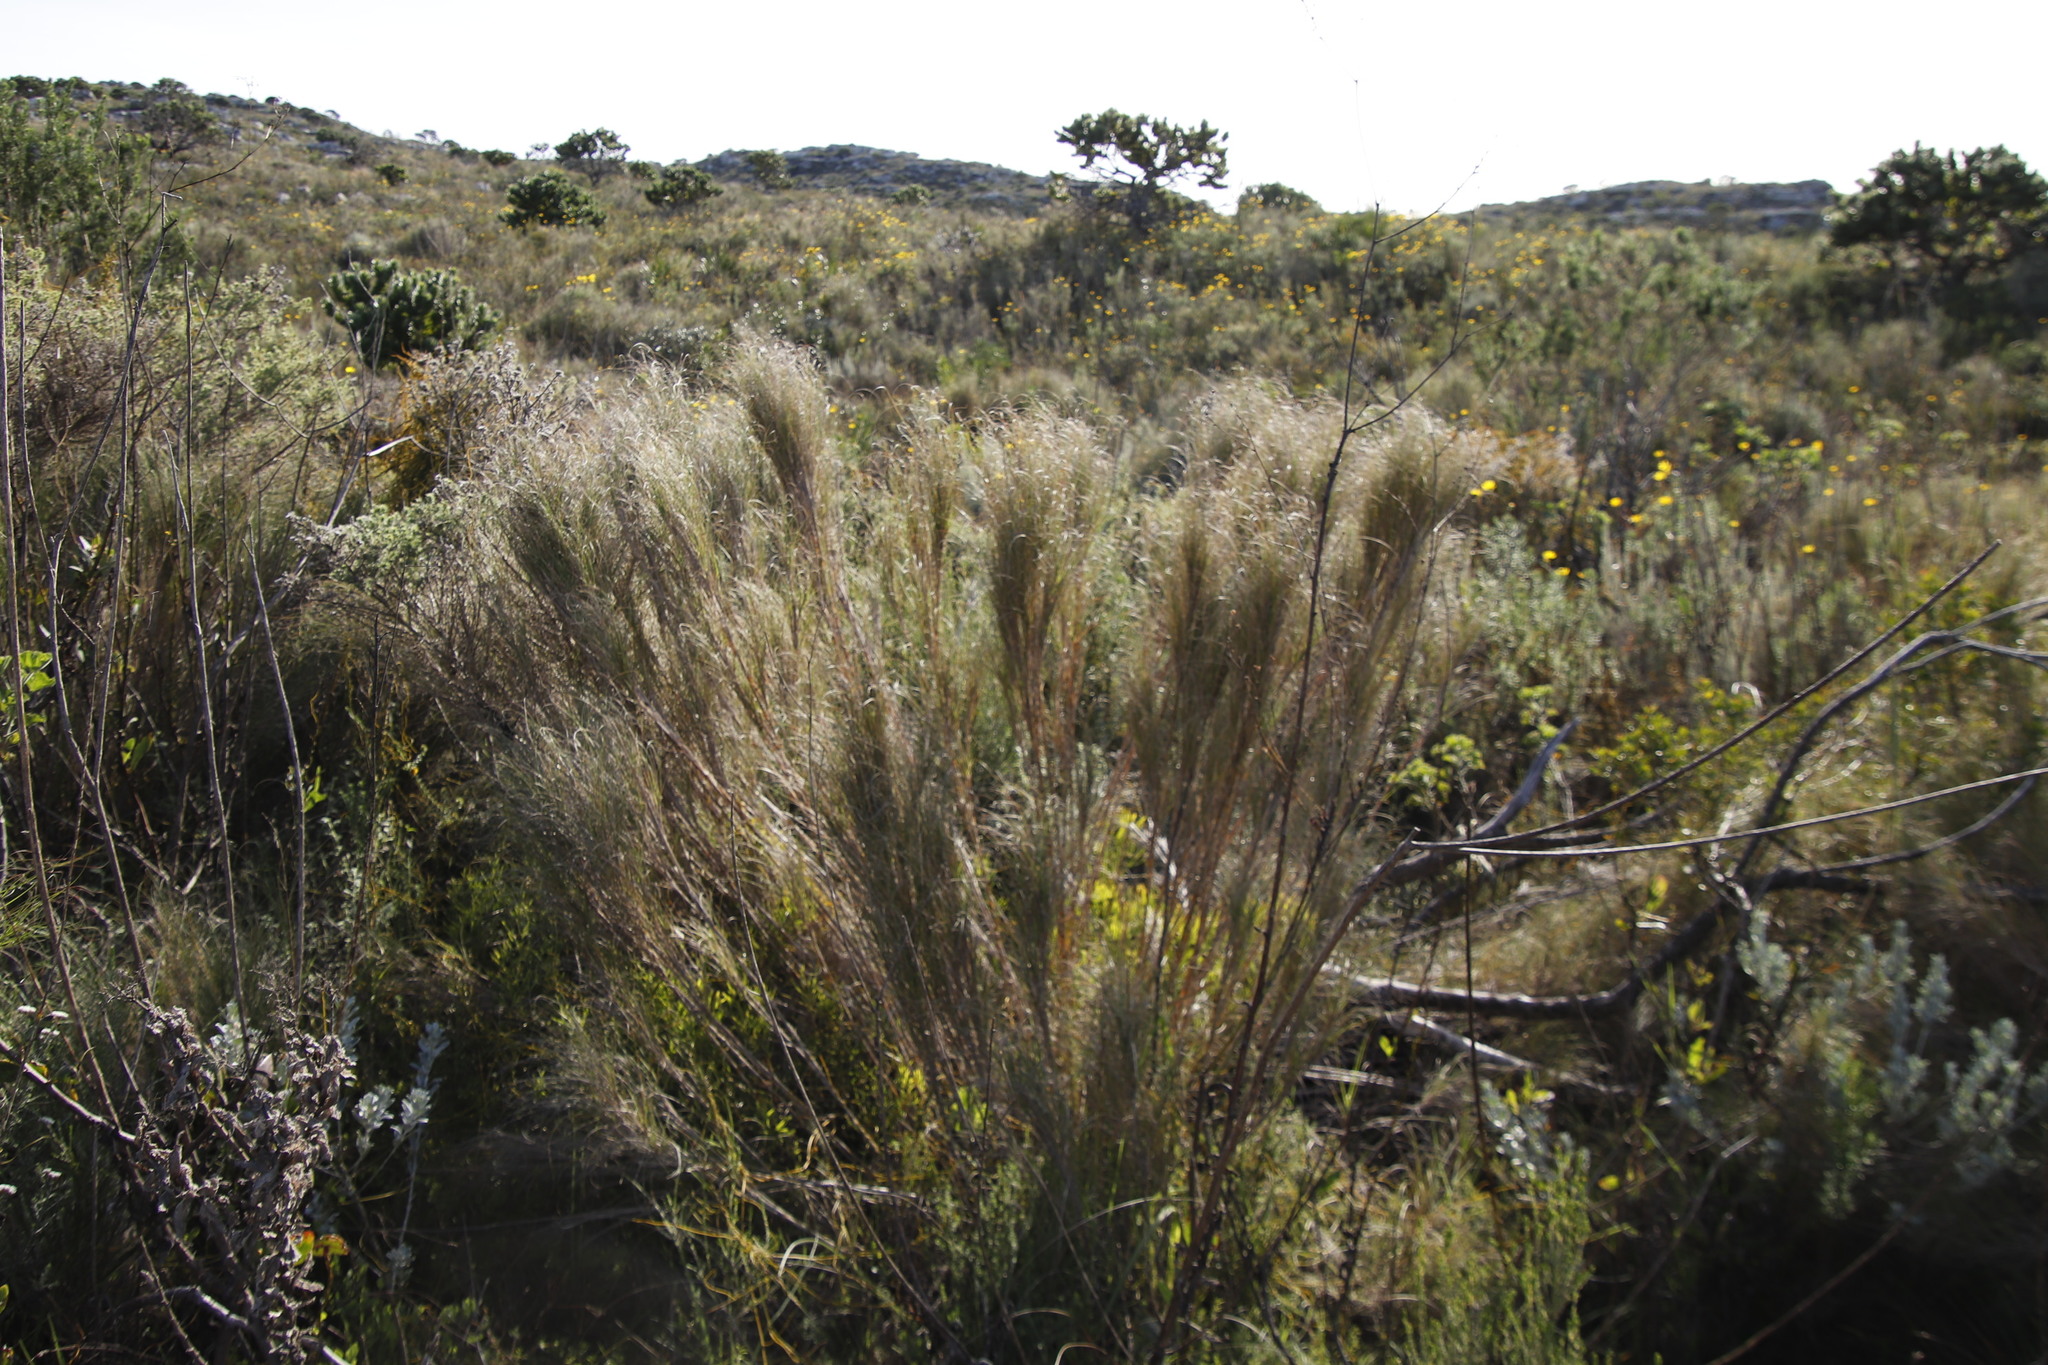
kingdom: Plantae
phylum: Tracheophyta
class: Liliopsida
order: Poales
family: Poaceae
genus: Pseudopentameris
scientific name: Pseudopentameris macrantha
